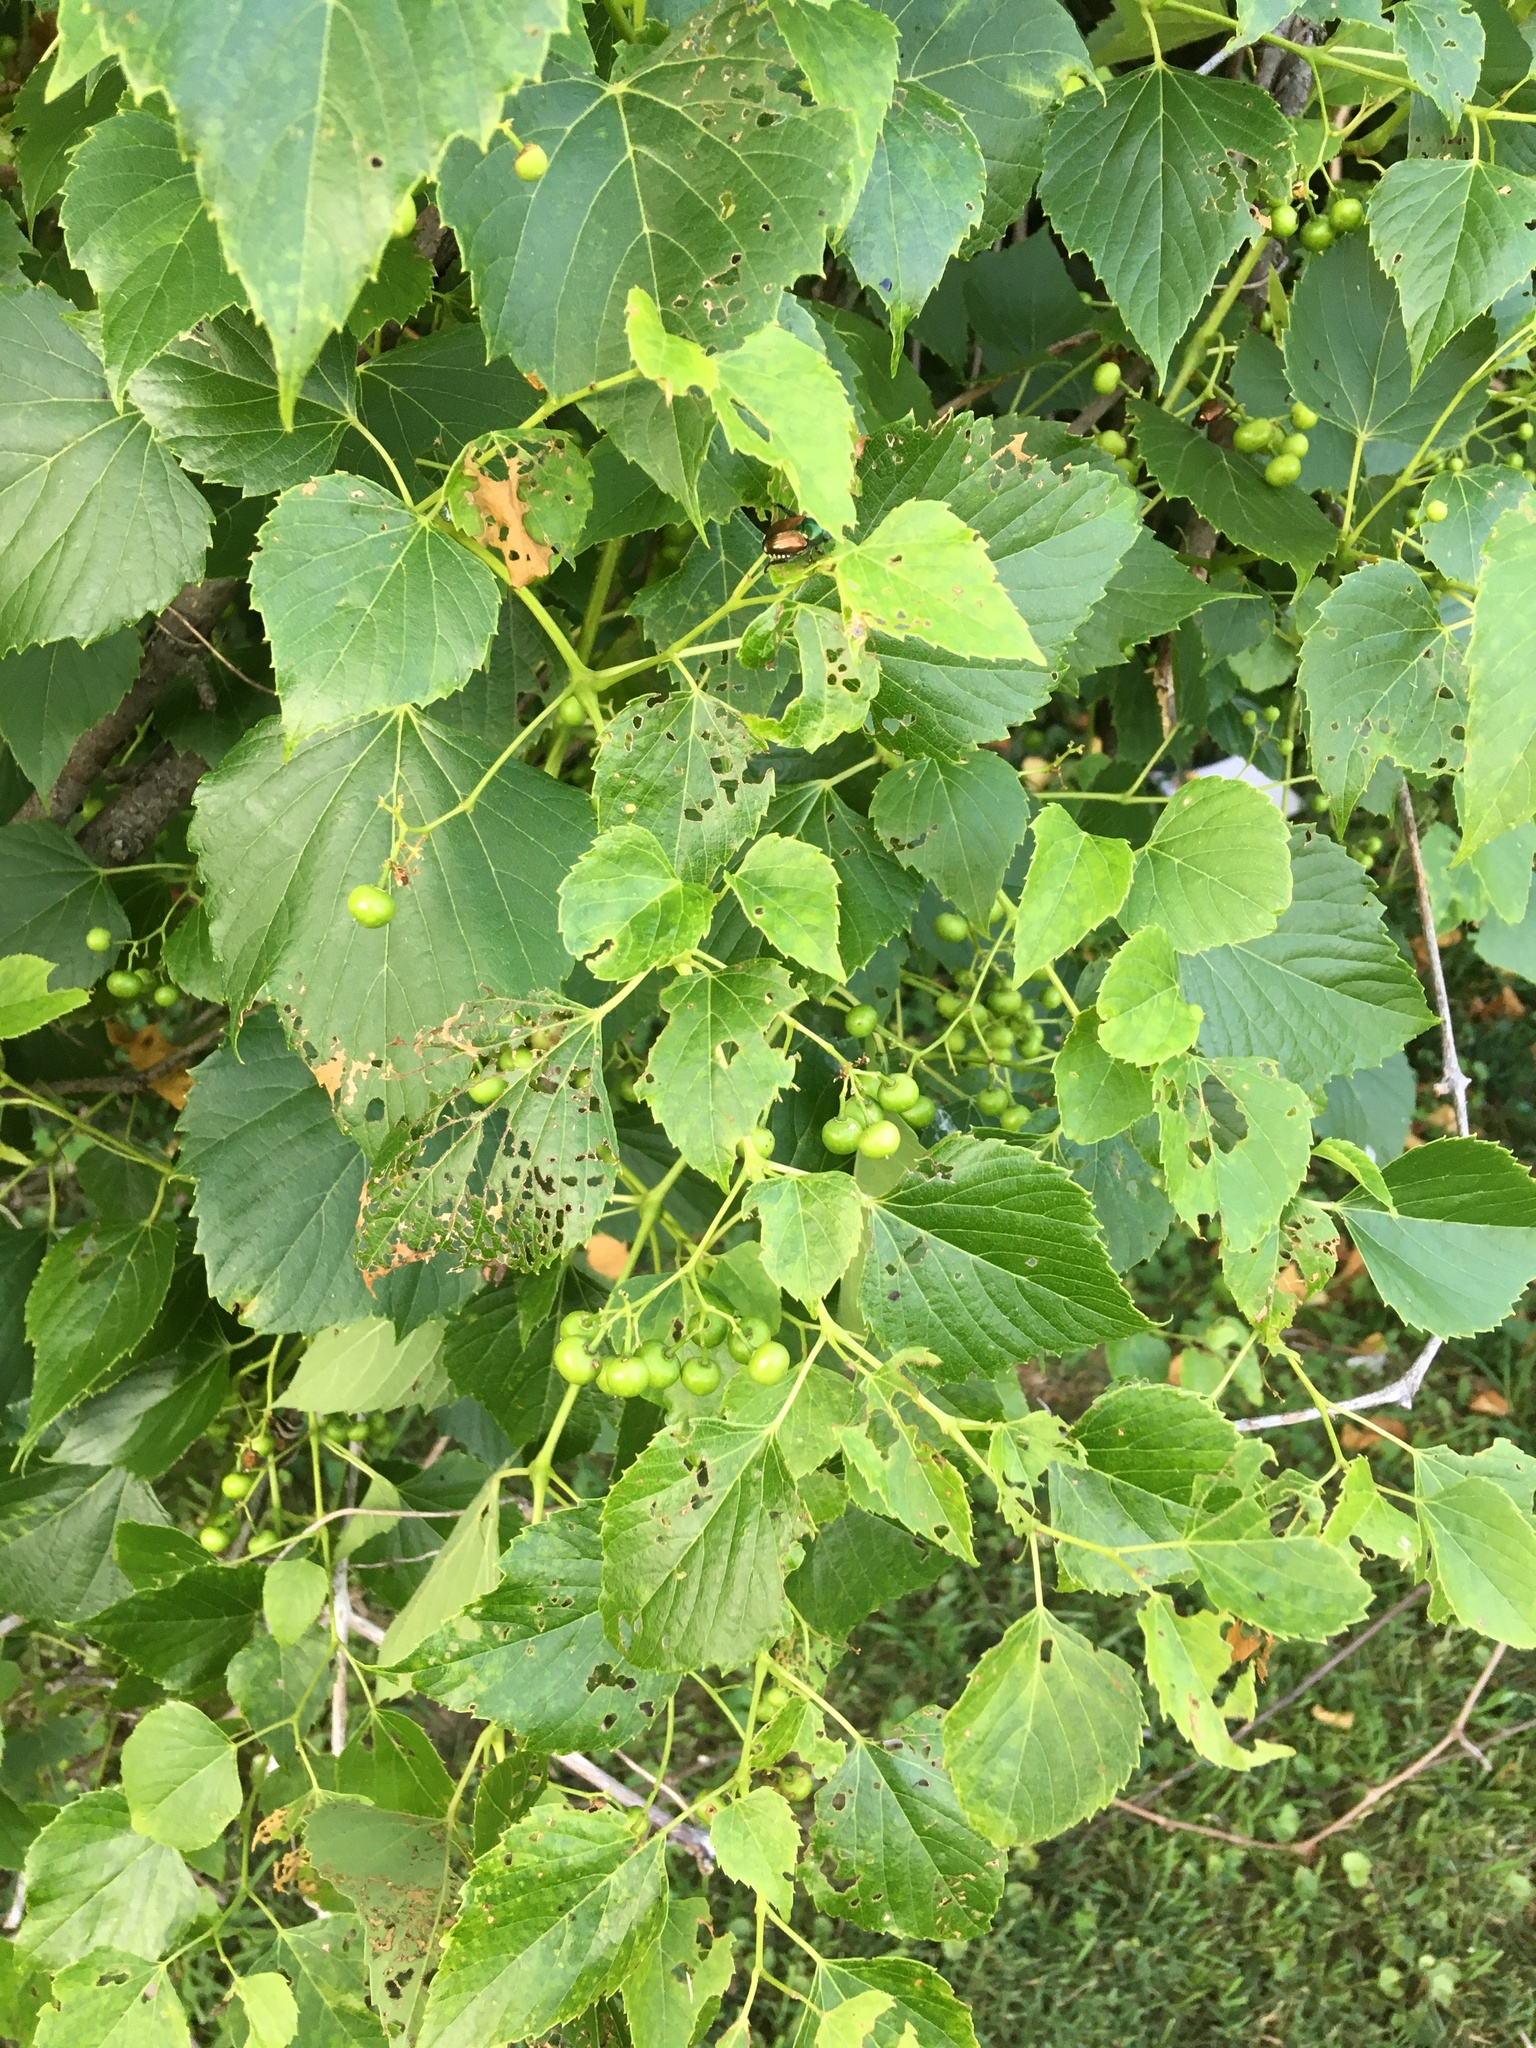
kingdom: Plantae
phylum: Tracheophyta
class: Magnoliopsida
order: Vitales
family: Vitaceae
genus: Ampelopsis
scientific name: Ampelopsis cordata
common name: Heart-leaf ampelopsis
